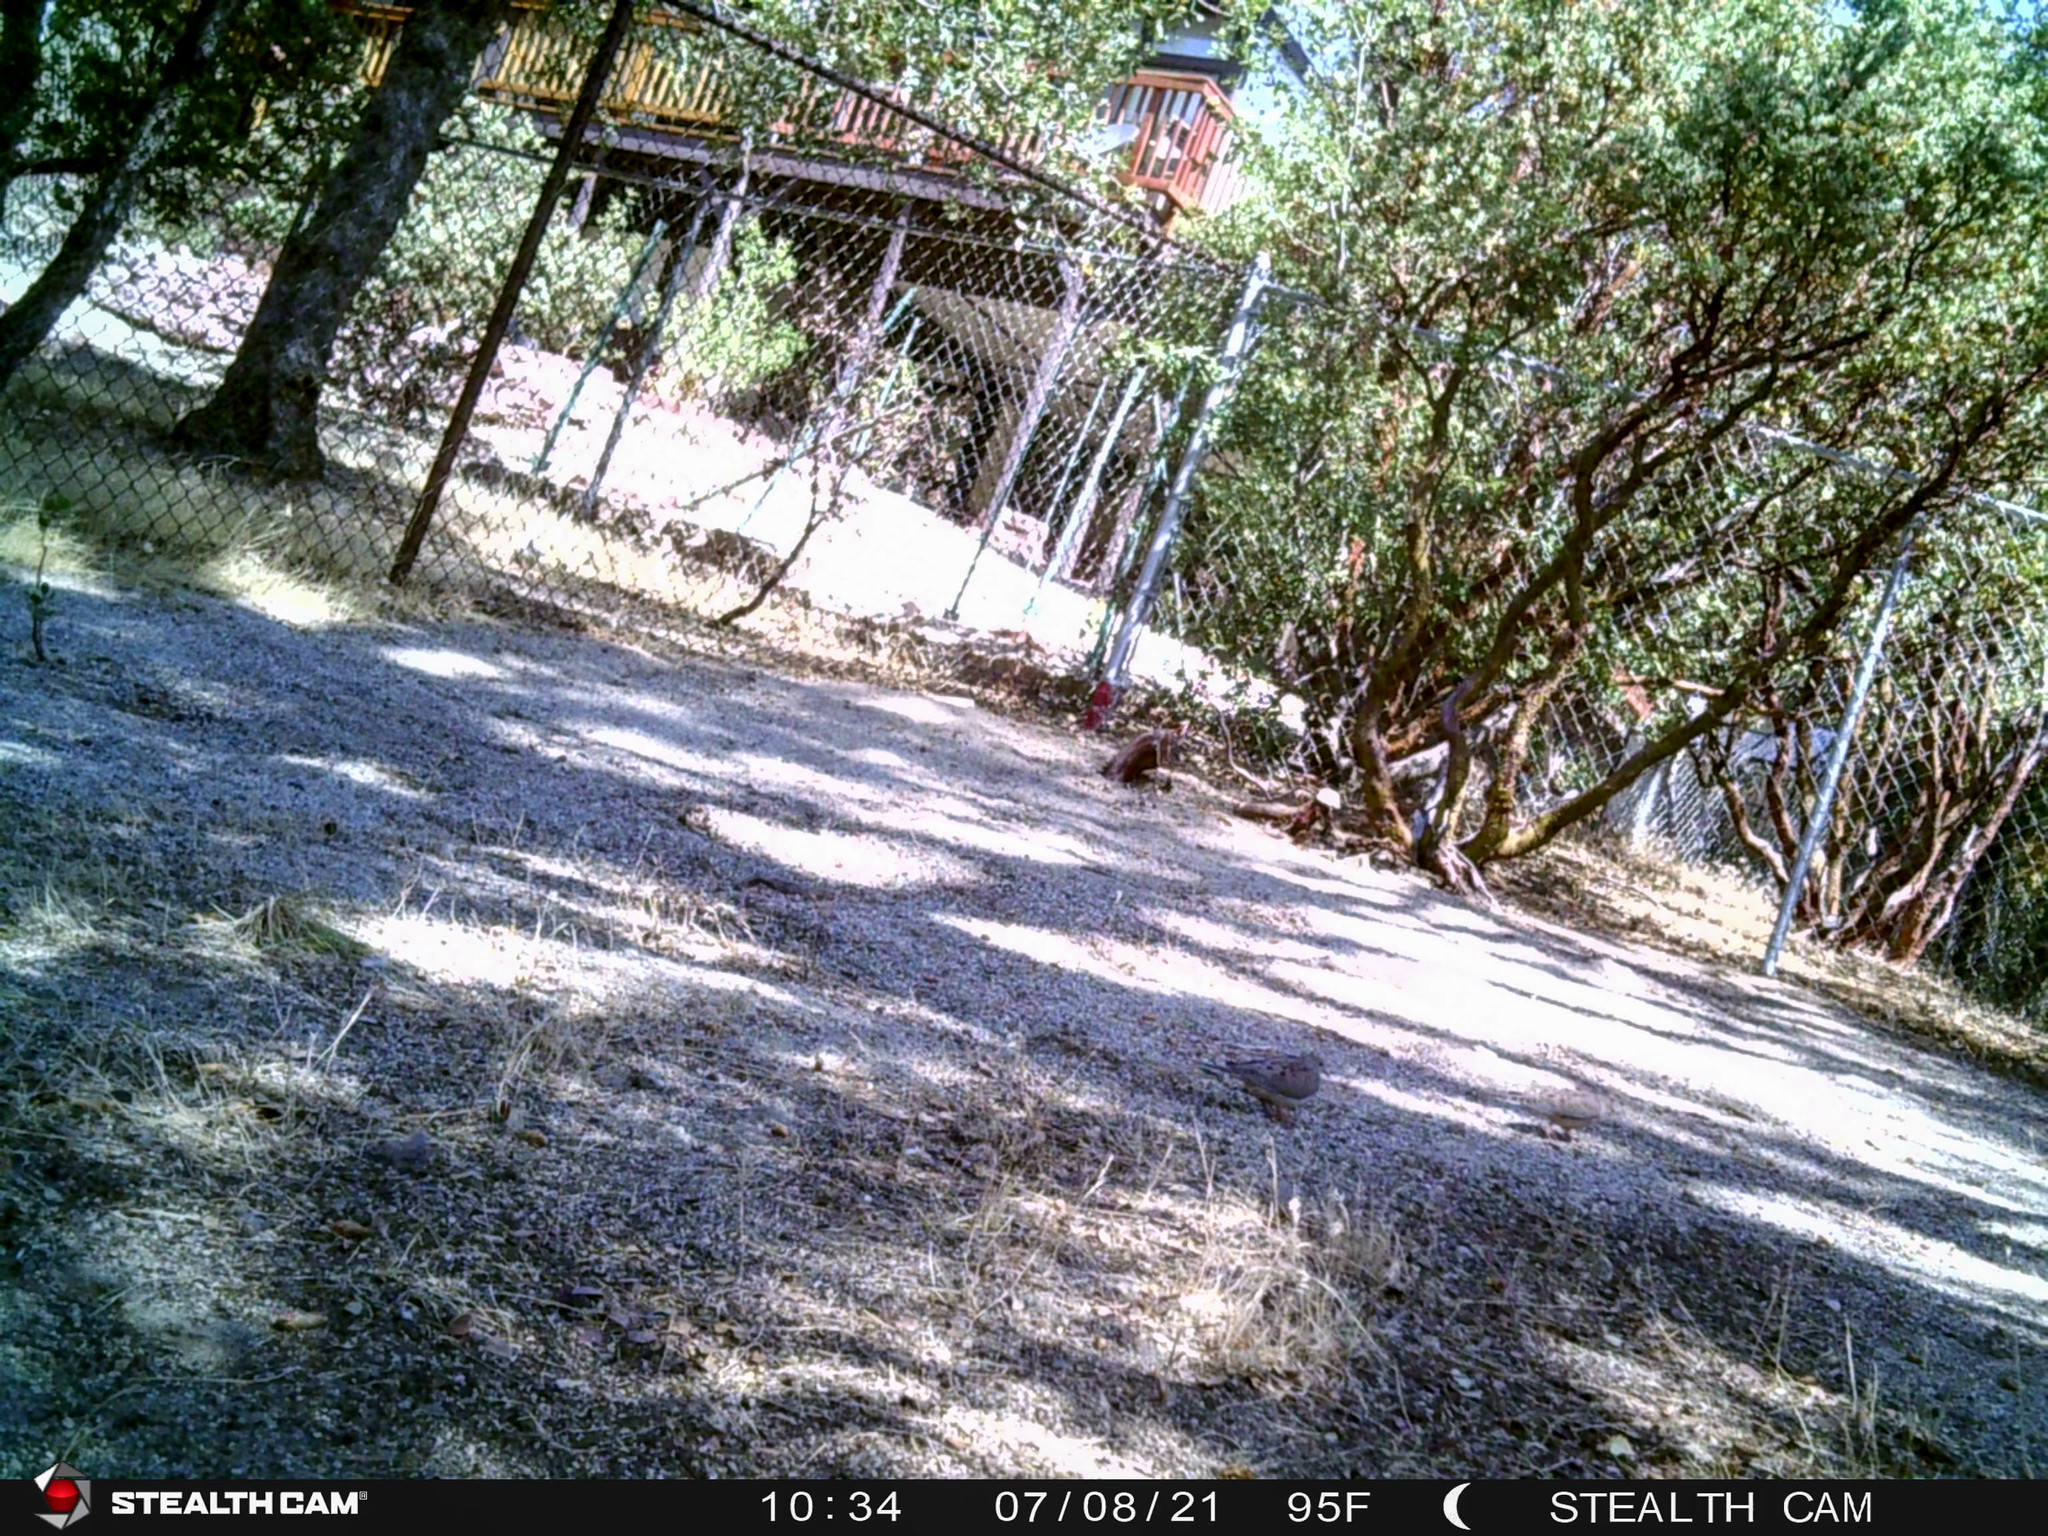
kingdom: Animalia
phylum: Chordata
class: Aves
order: Columbiformes
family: Columbidae
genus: Zenaida
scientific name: Zenaida macroura
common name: Mourning dove
